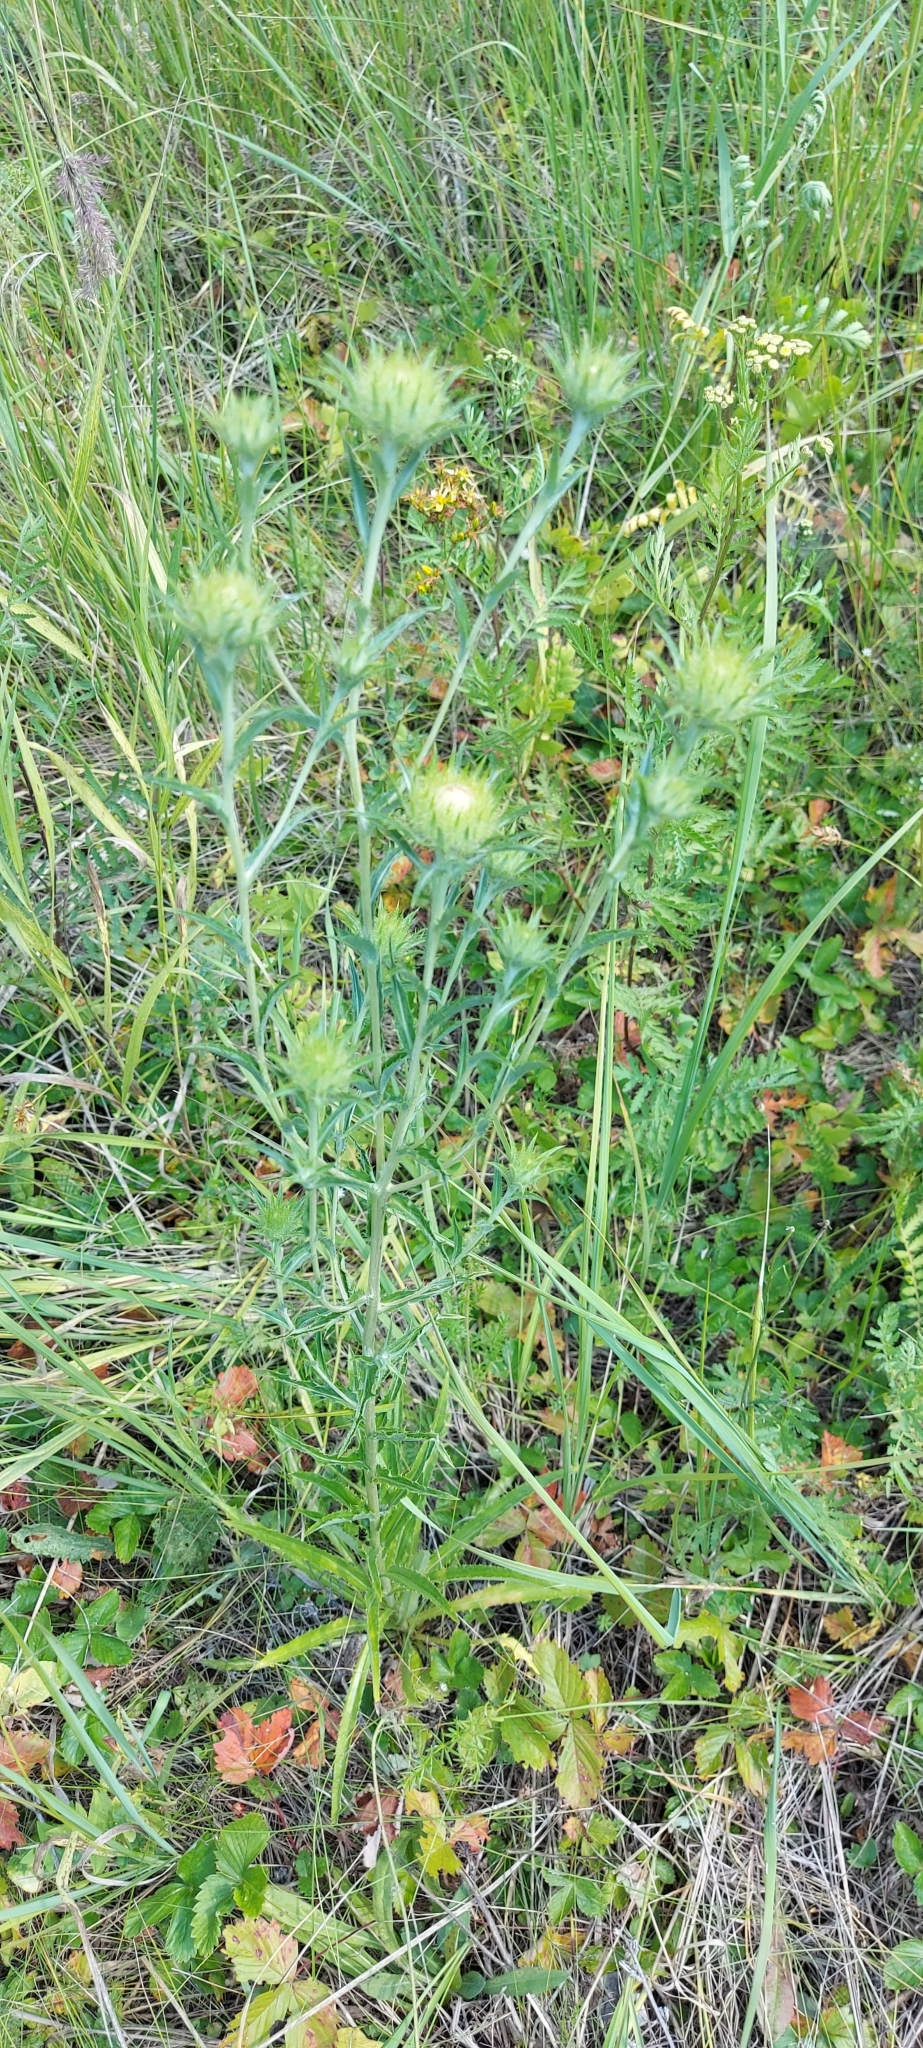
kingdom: Plantae
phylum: Tracheophyta
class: Magnoliopsida
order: Asterales
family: Asteraceae
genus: Carlina
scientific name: Carlina biebersteinii
